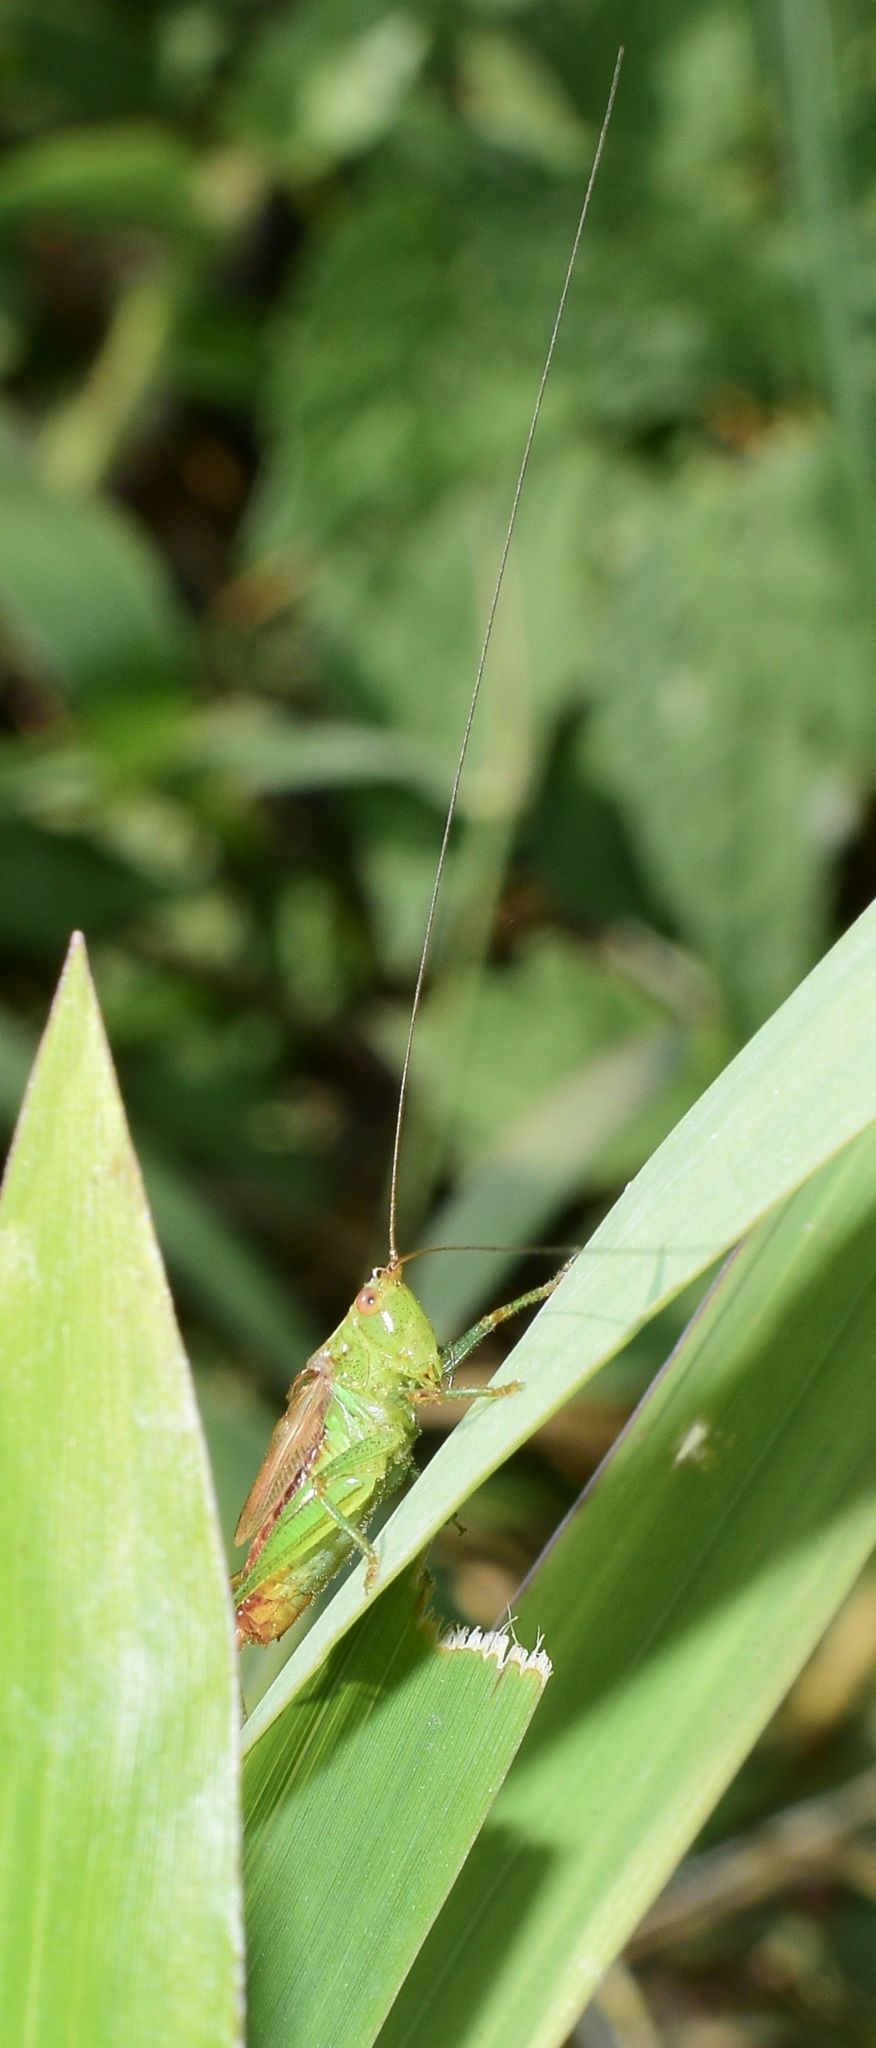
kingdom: Animalia
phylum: Arthropoda
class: Insecta
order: Orthoptera
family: Tettigoniidae
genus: Conocephalus
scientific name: Conocephalus brevipennis
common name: Short-winged meadow katydid
